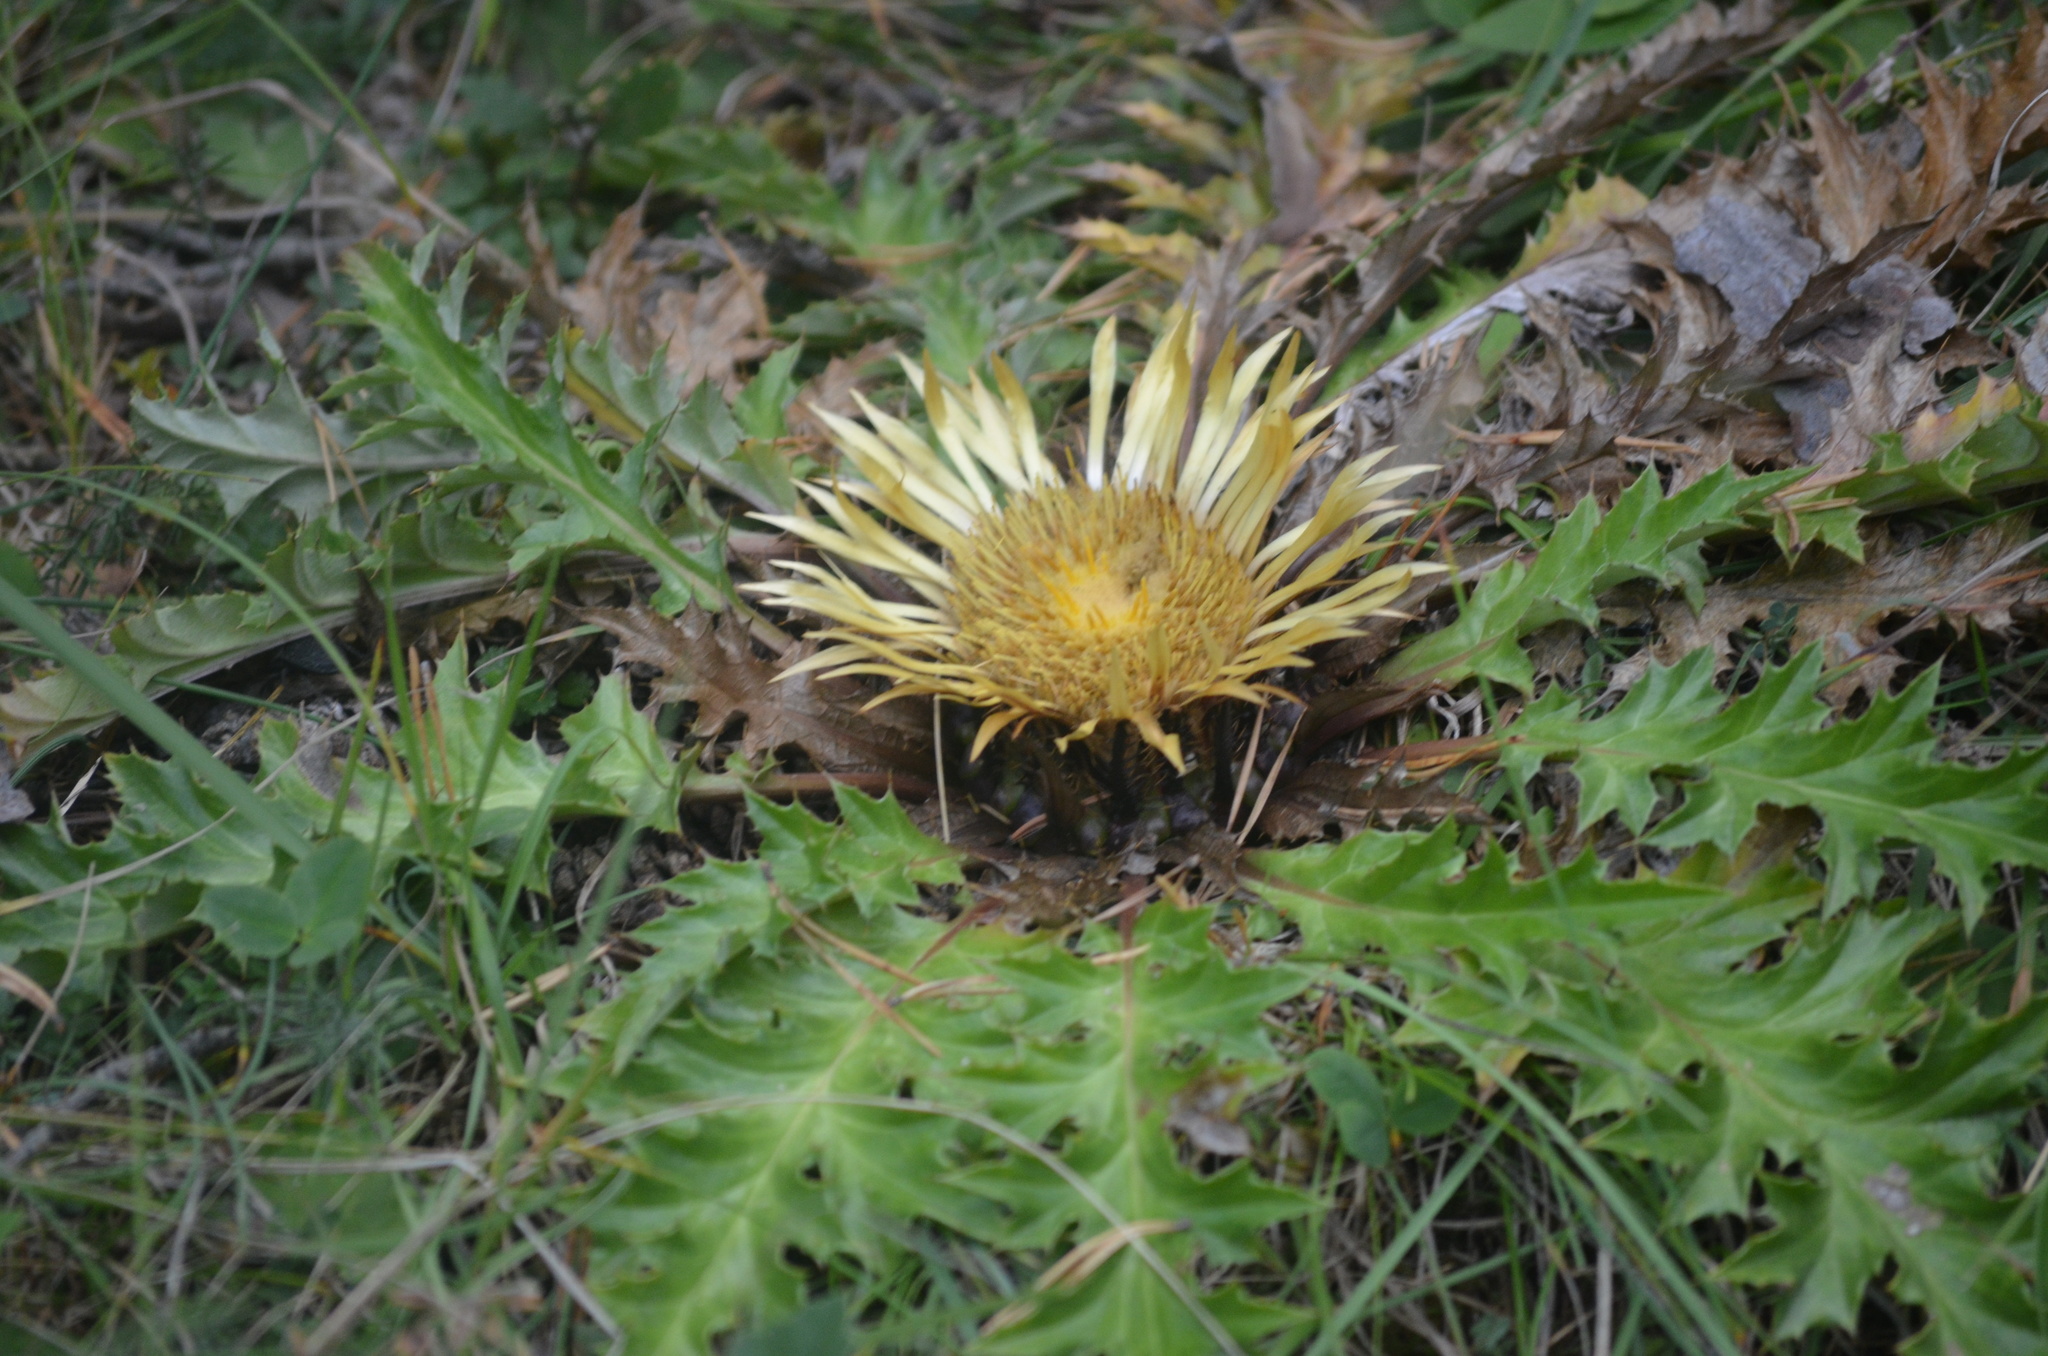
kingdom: Plantae
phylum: Tracheophyta
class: Magnoliopsida
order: Asterales
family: Asteraceae
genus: Carlina
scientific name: Carlina acanthifolia
